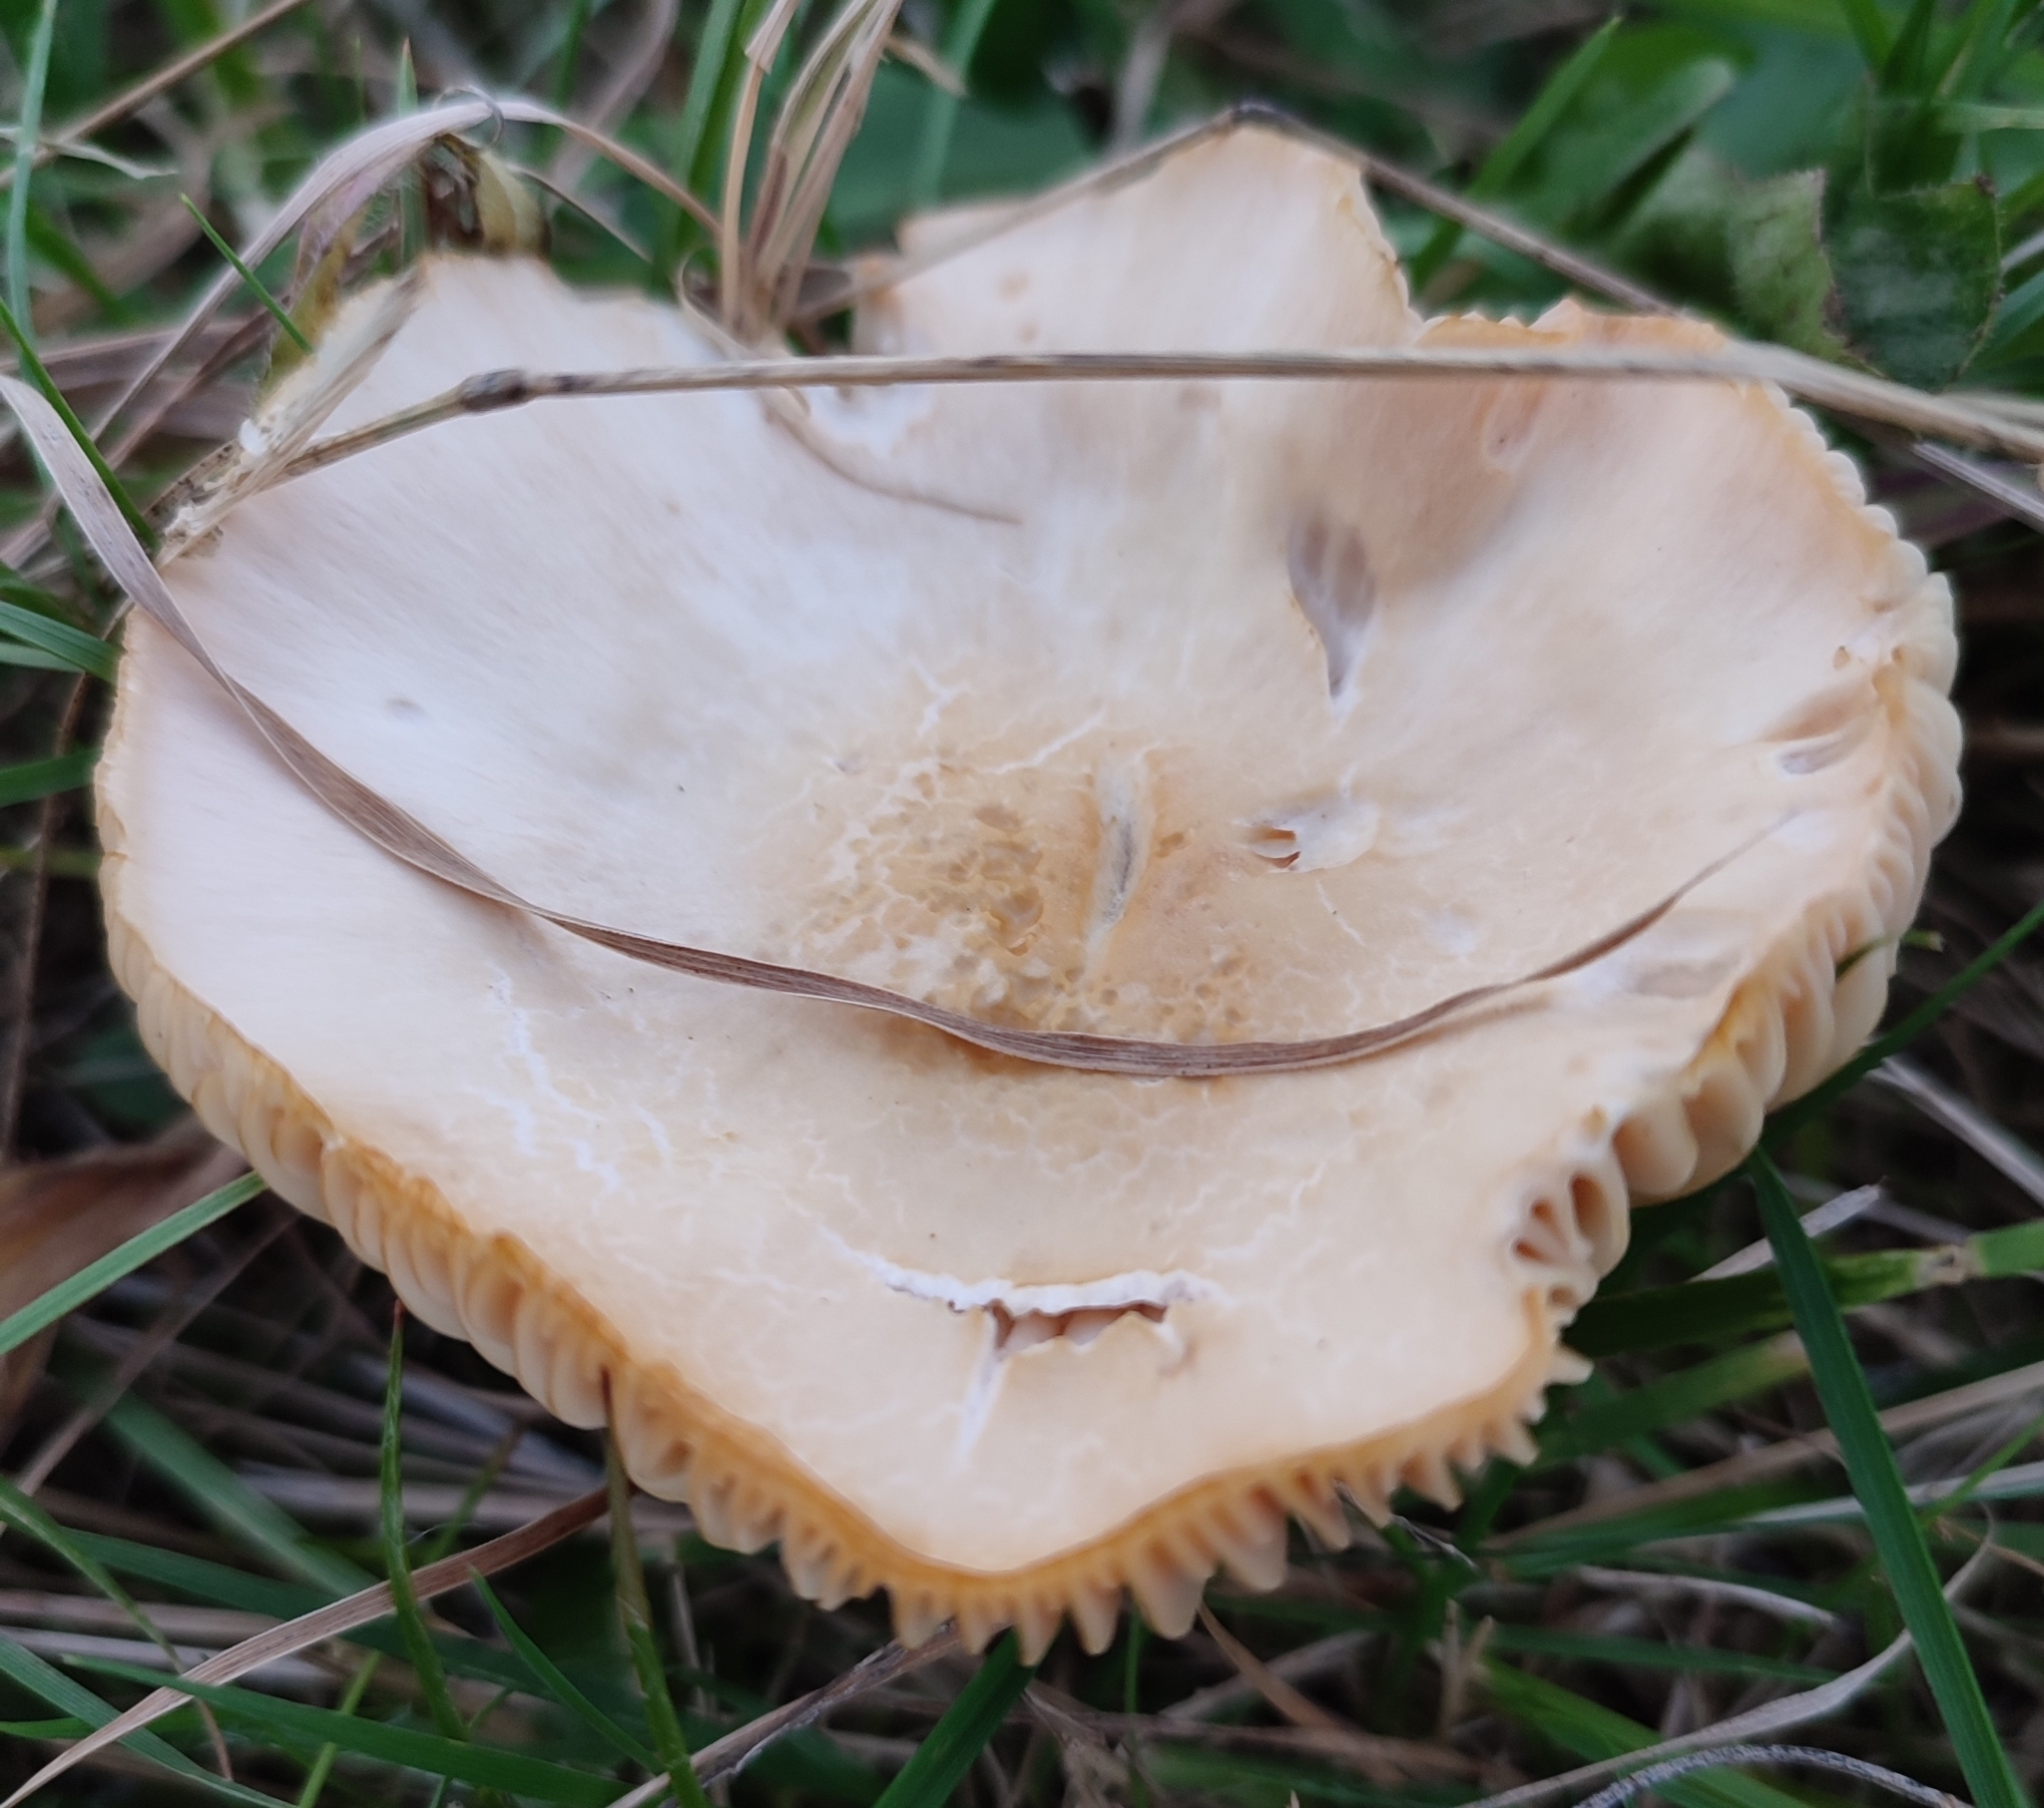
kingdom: Fungi
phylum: Basidiomycota
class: Agaricomycetes
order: Agaricales
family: Hygrophoraceae
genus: Cuphophyllus
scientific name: Cuphophyllus pratensis
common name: Meadow waxcap
